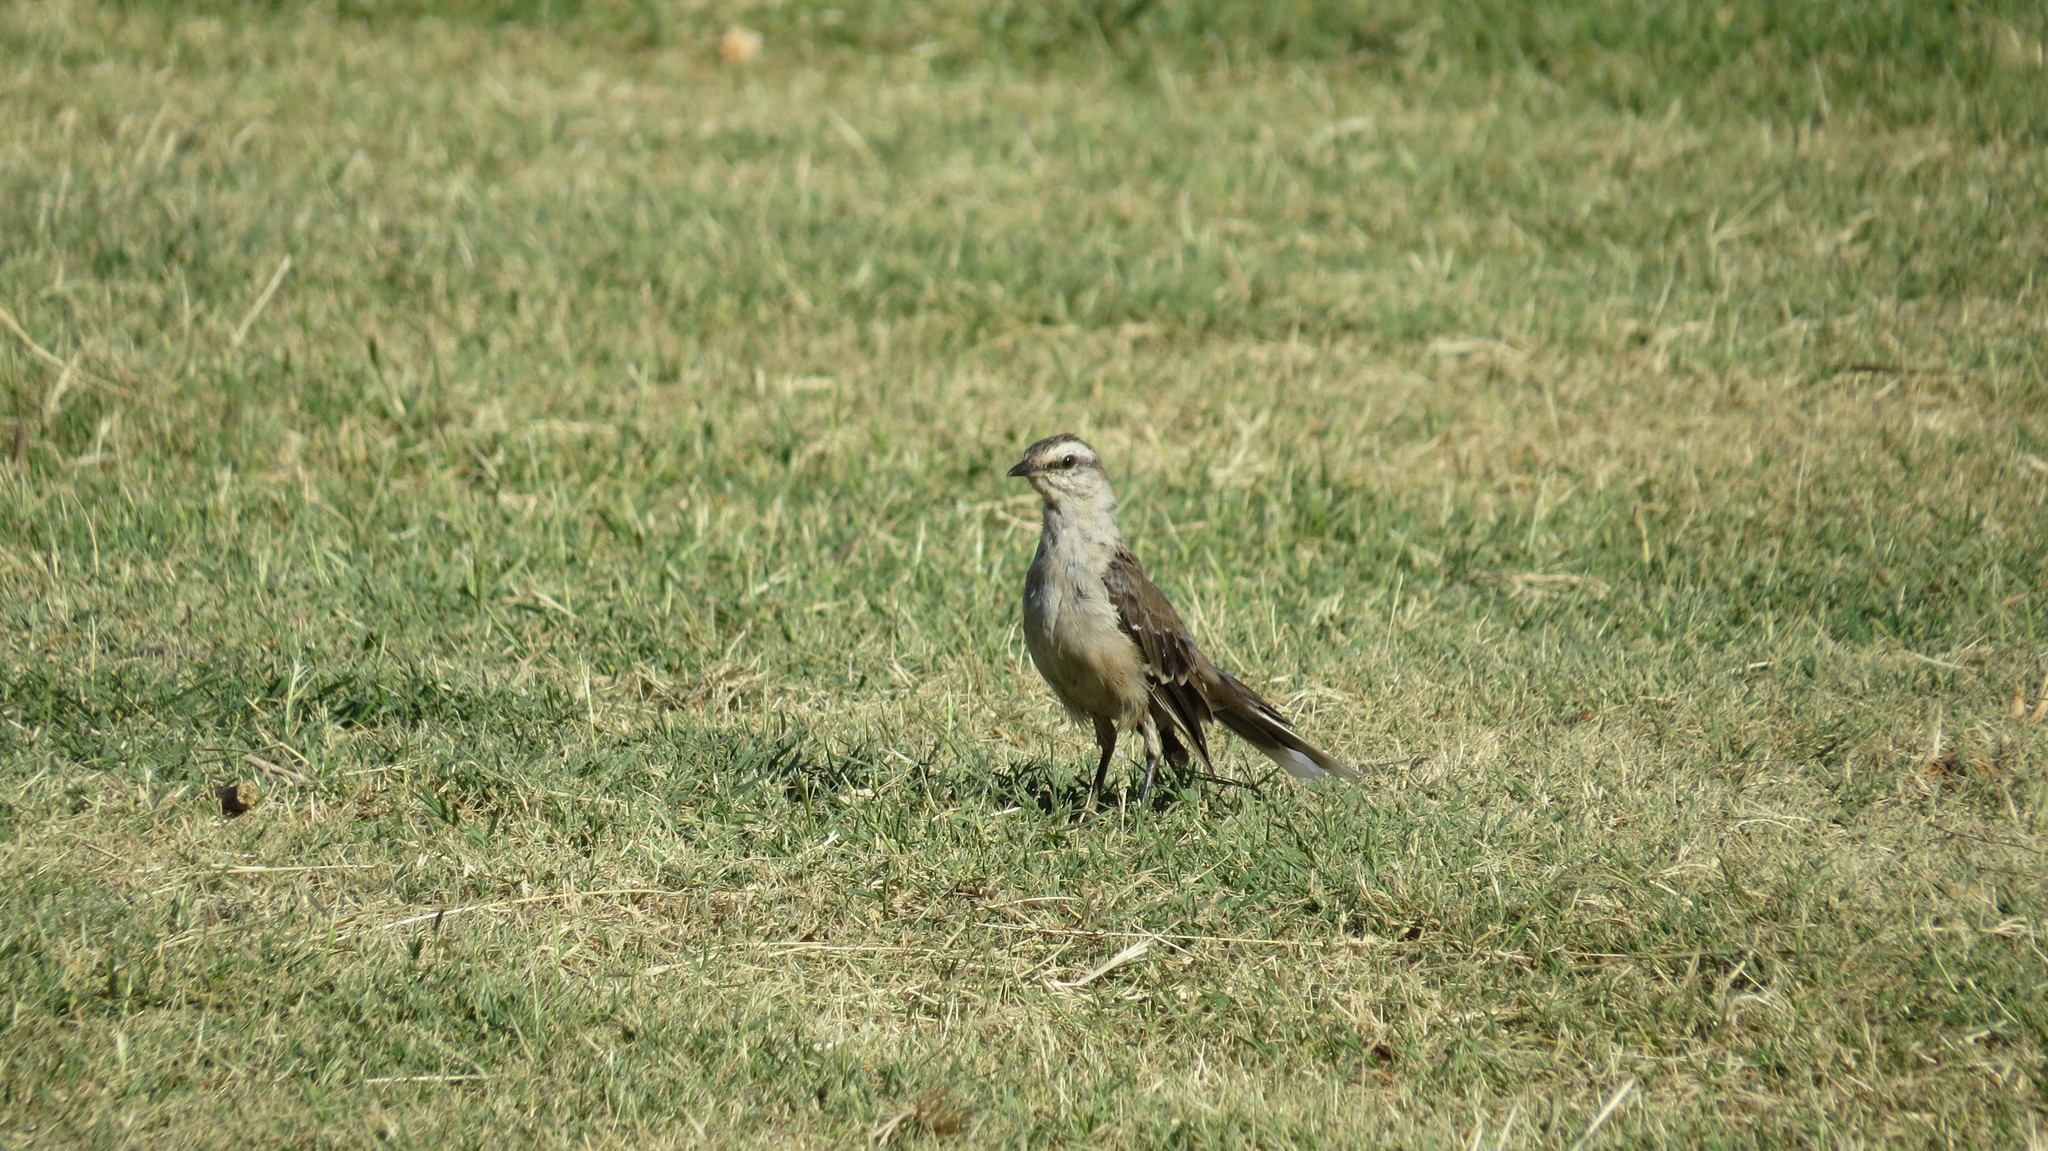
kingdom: Animalia
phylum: Chordata
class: Aves
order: Passeriformes
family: Mimidae
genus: Mimus
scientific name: Mimus saturninus
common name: Chalk-browed mockingbird
